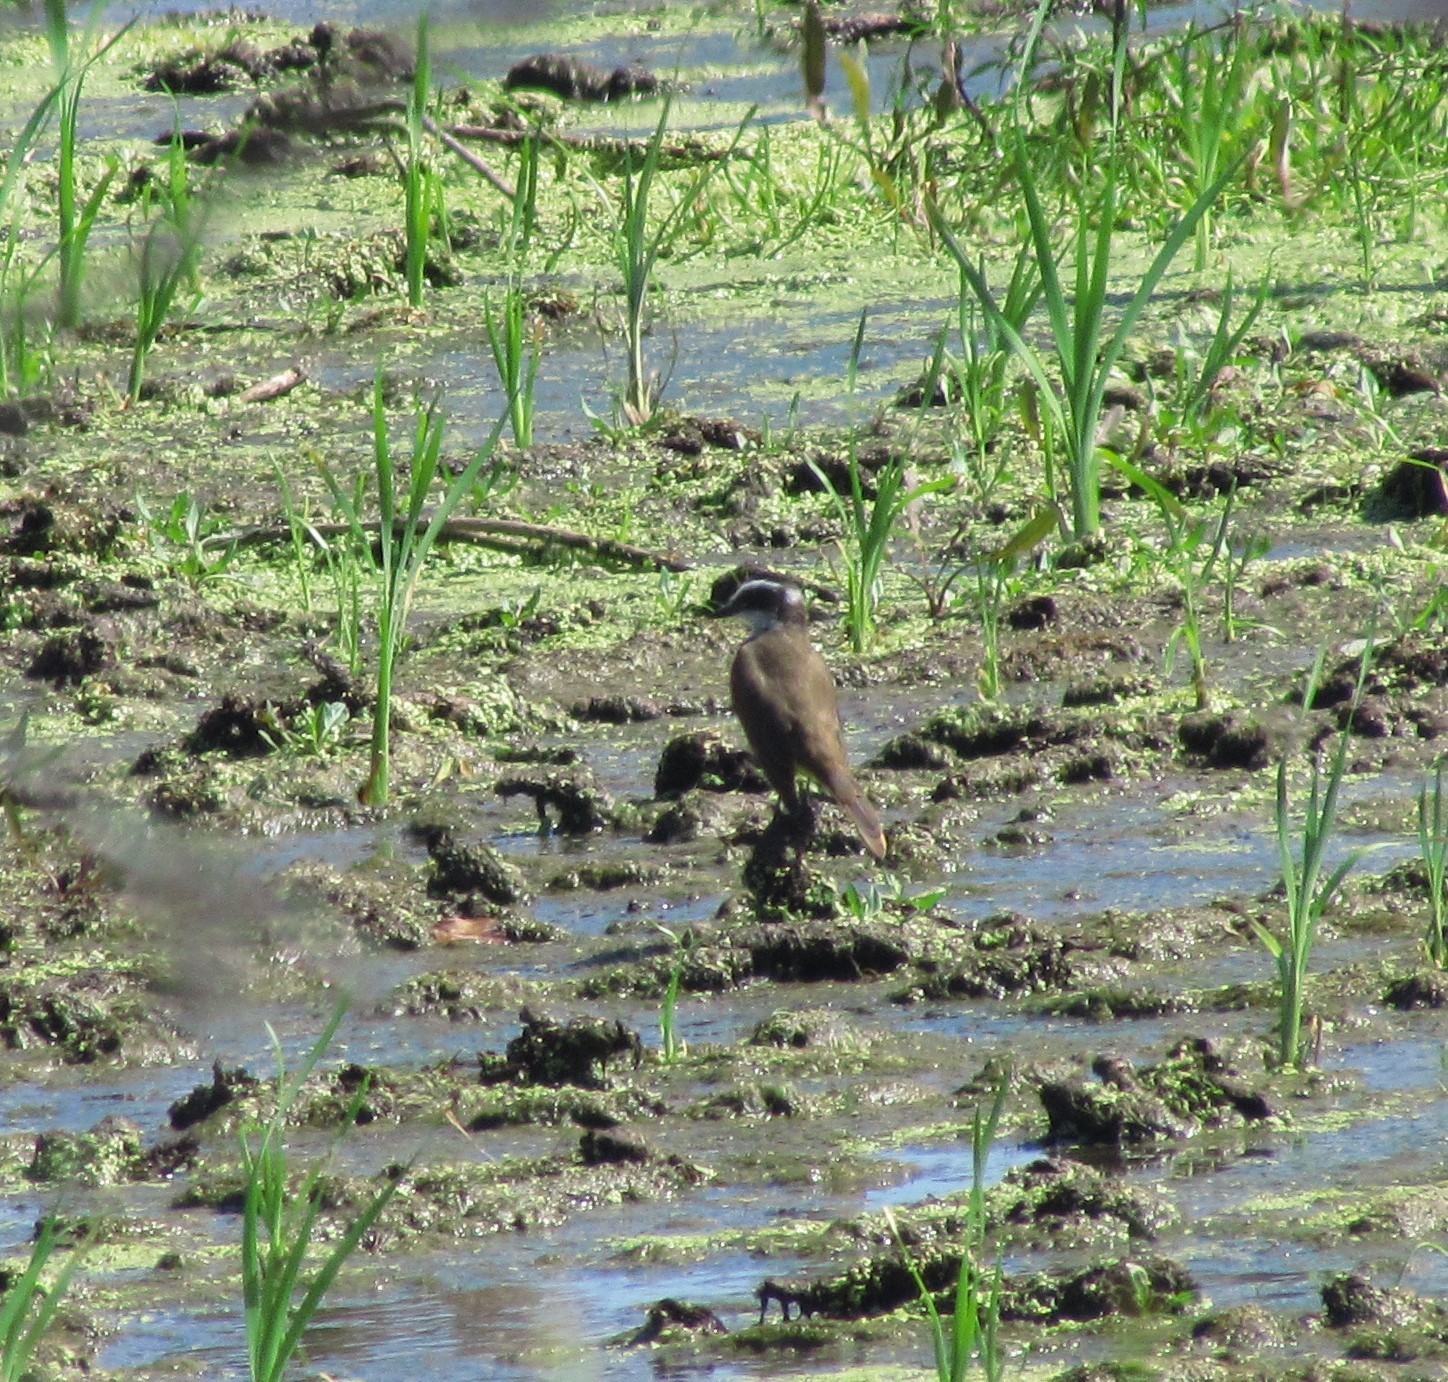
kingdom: Animalia
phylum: Chordata
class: Aves
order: Passeriformes
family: Tyrannidae
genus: Pitangus
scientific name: Pitangus sulphuratus
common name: Great kiskadee
